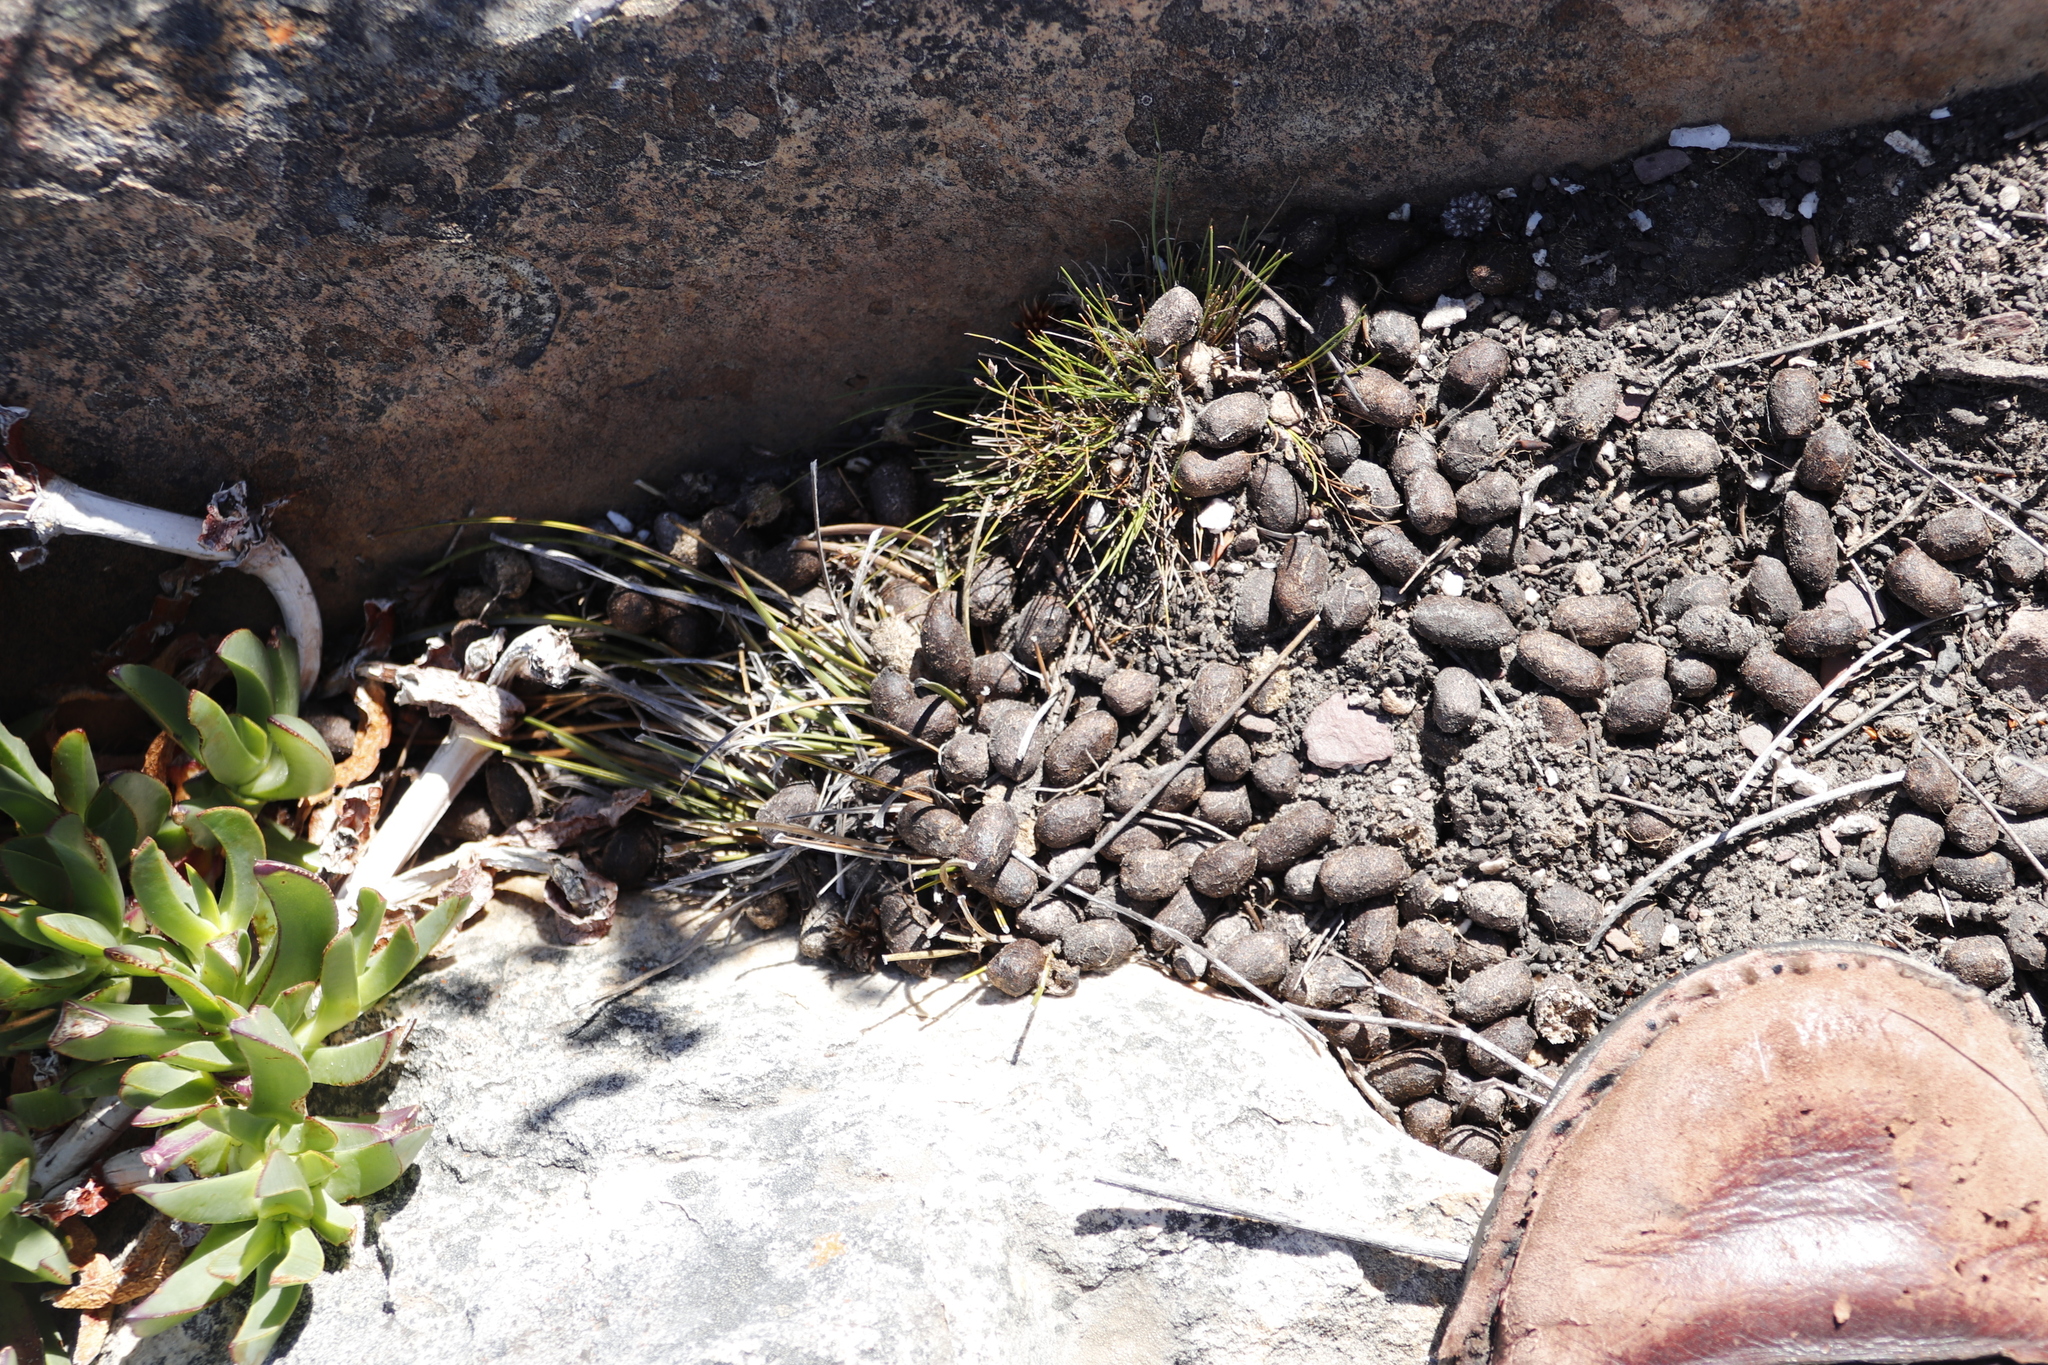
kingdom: Animalia
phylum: Chordata
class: Mammalia
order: Artiodactyla
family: Bovidae
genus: Oreotragus
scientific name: Oreotragus oreotragus
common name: Klipspringer
